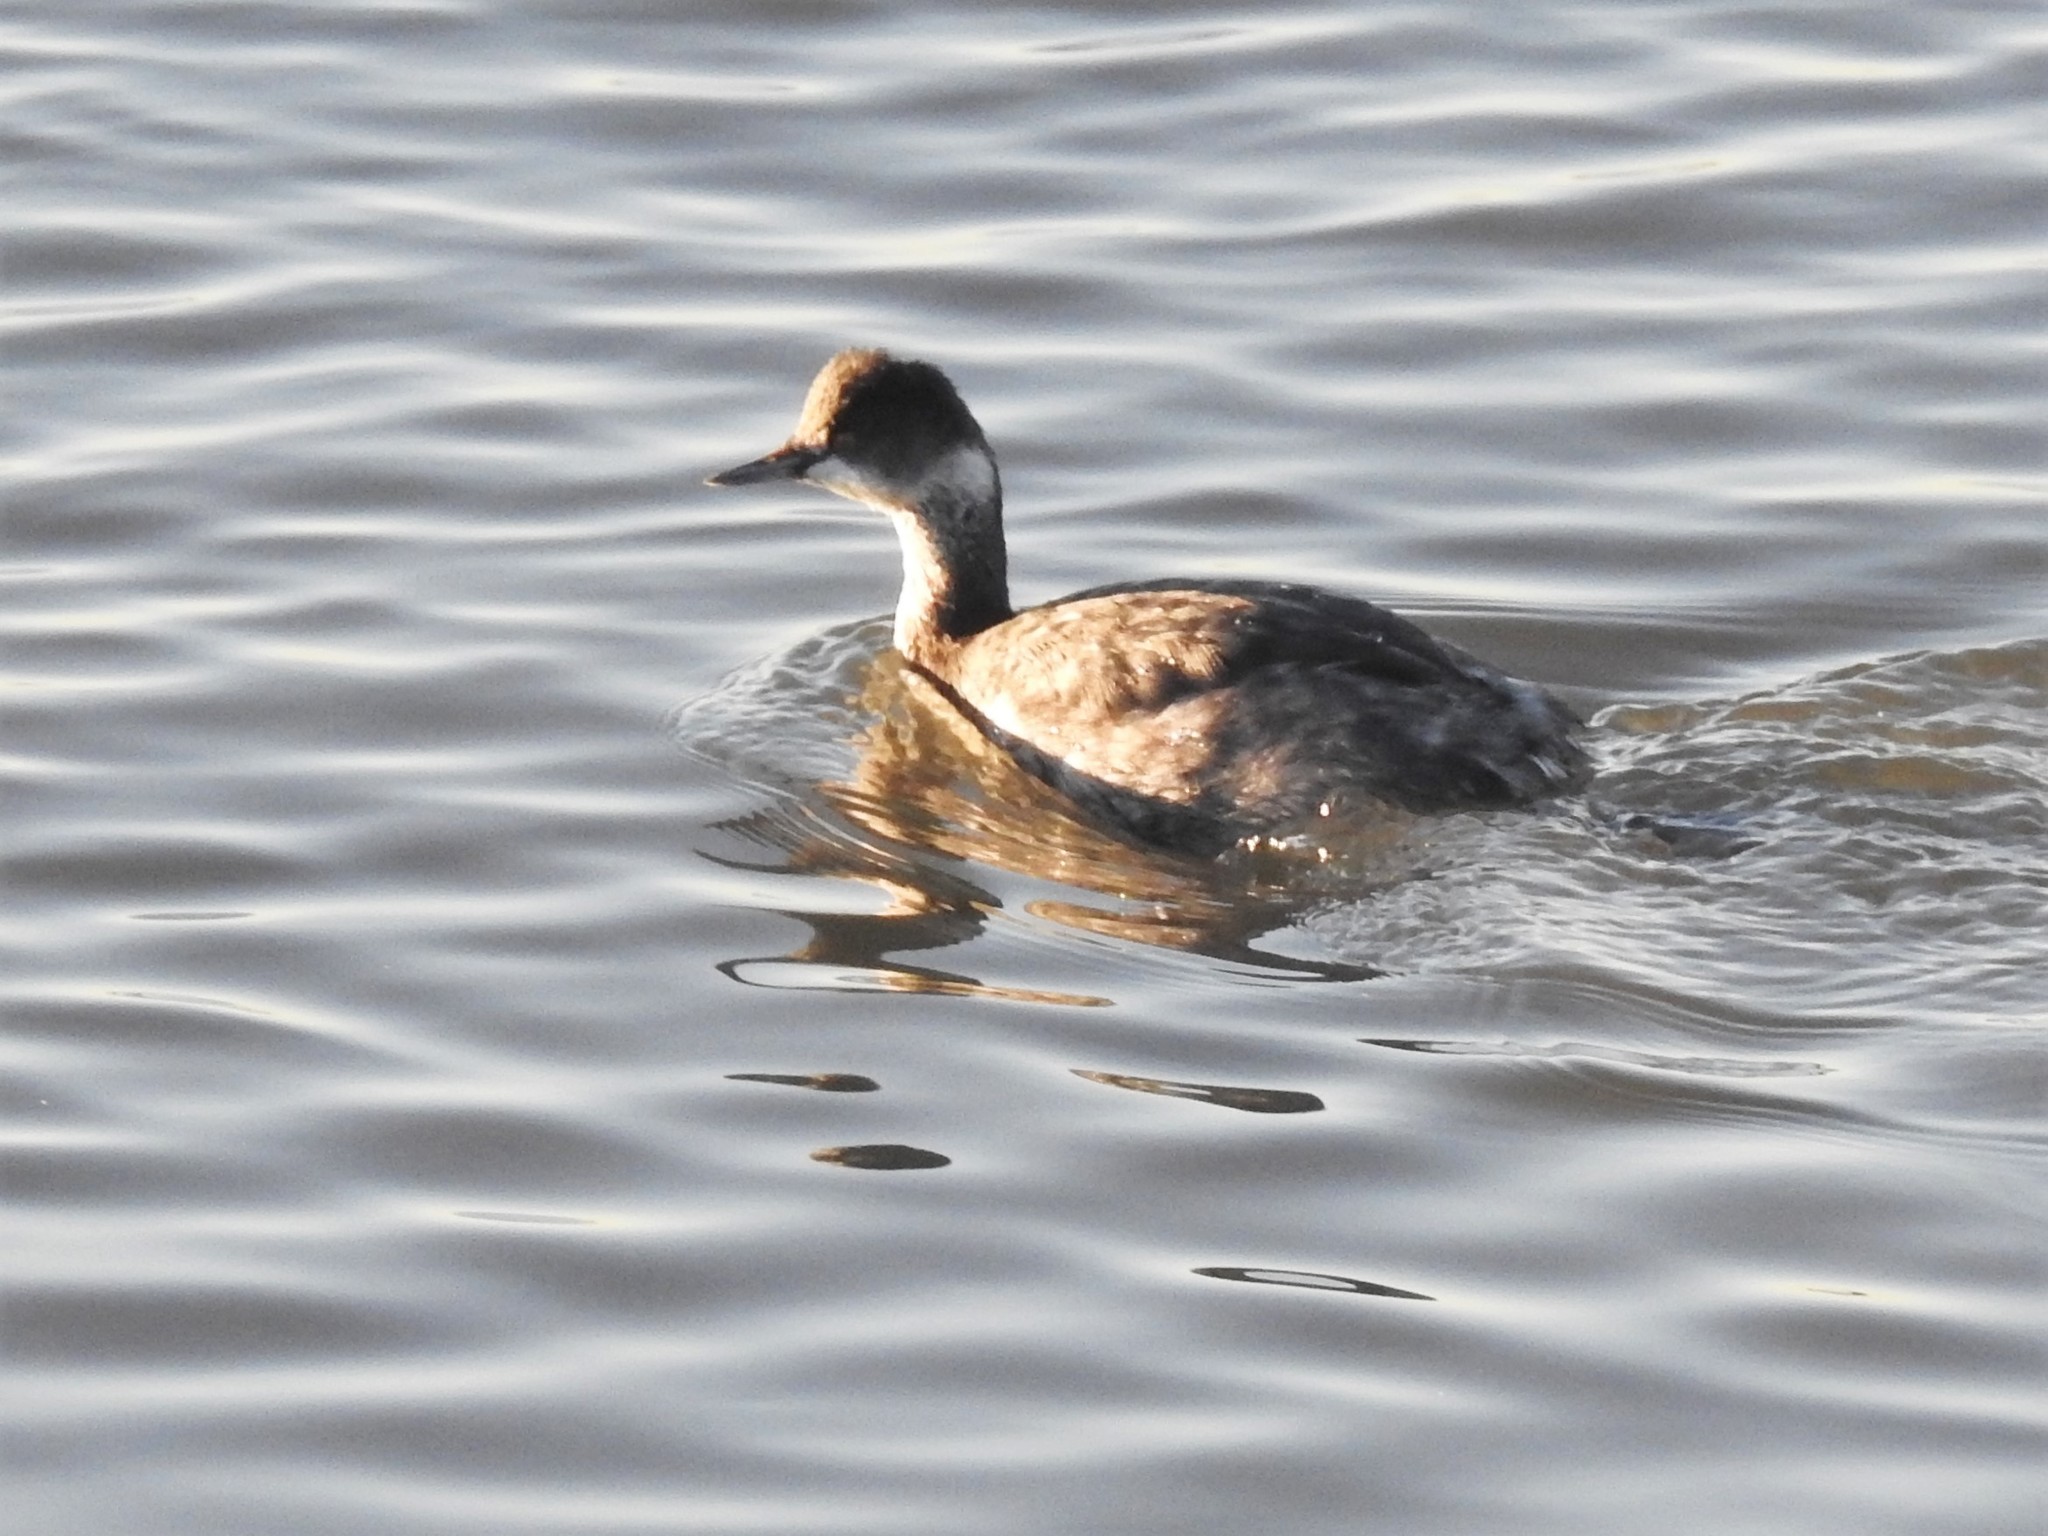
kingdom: Animalia
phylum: Chordata
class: Aves
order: Podicipediformes
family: Podicipedidae
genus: Podiceps
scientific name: Podiceps nigricollis
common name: Black-necked grebe
